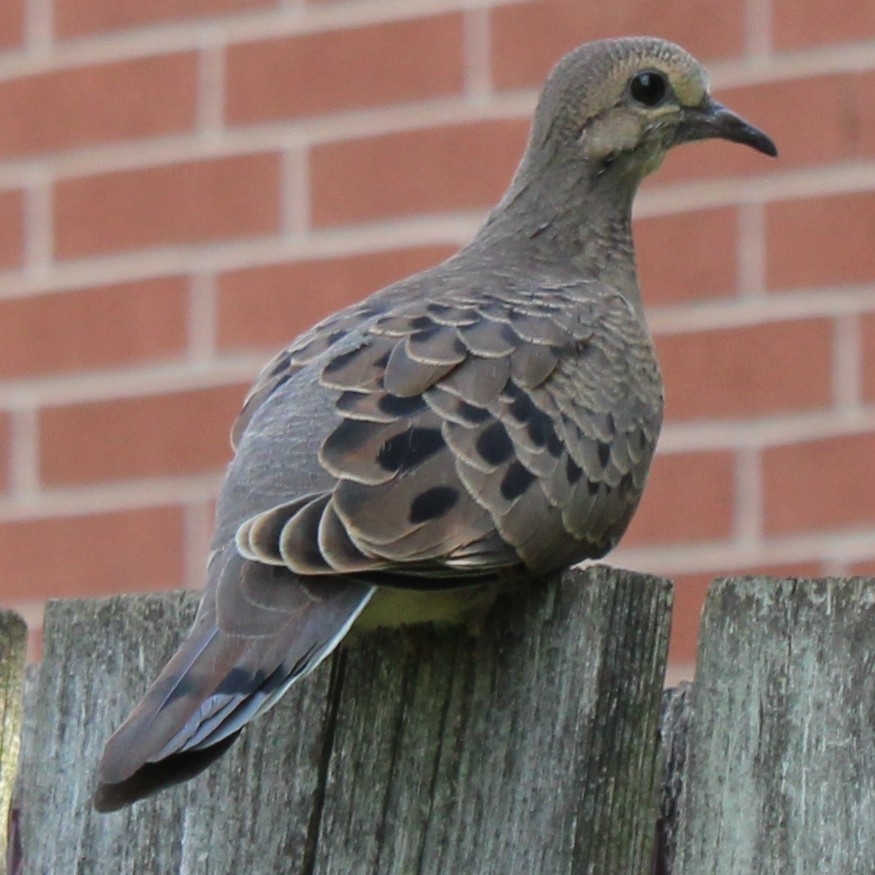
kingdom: Animalia
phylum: Chordata
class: Aves
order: Columbiformes
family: Columbidae
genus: Zenaida
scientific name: Zenaida macroura
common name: Mourning dove
